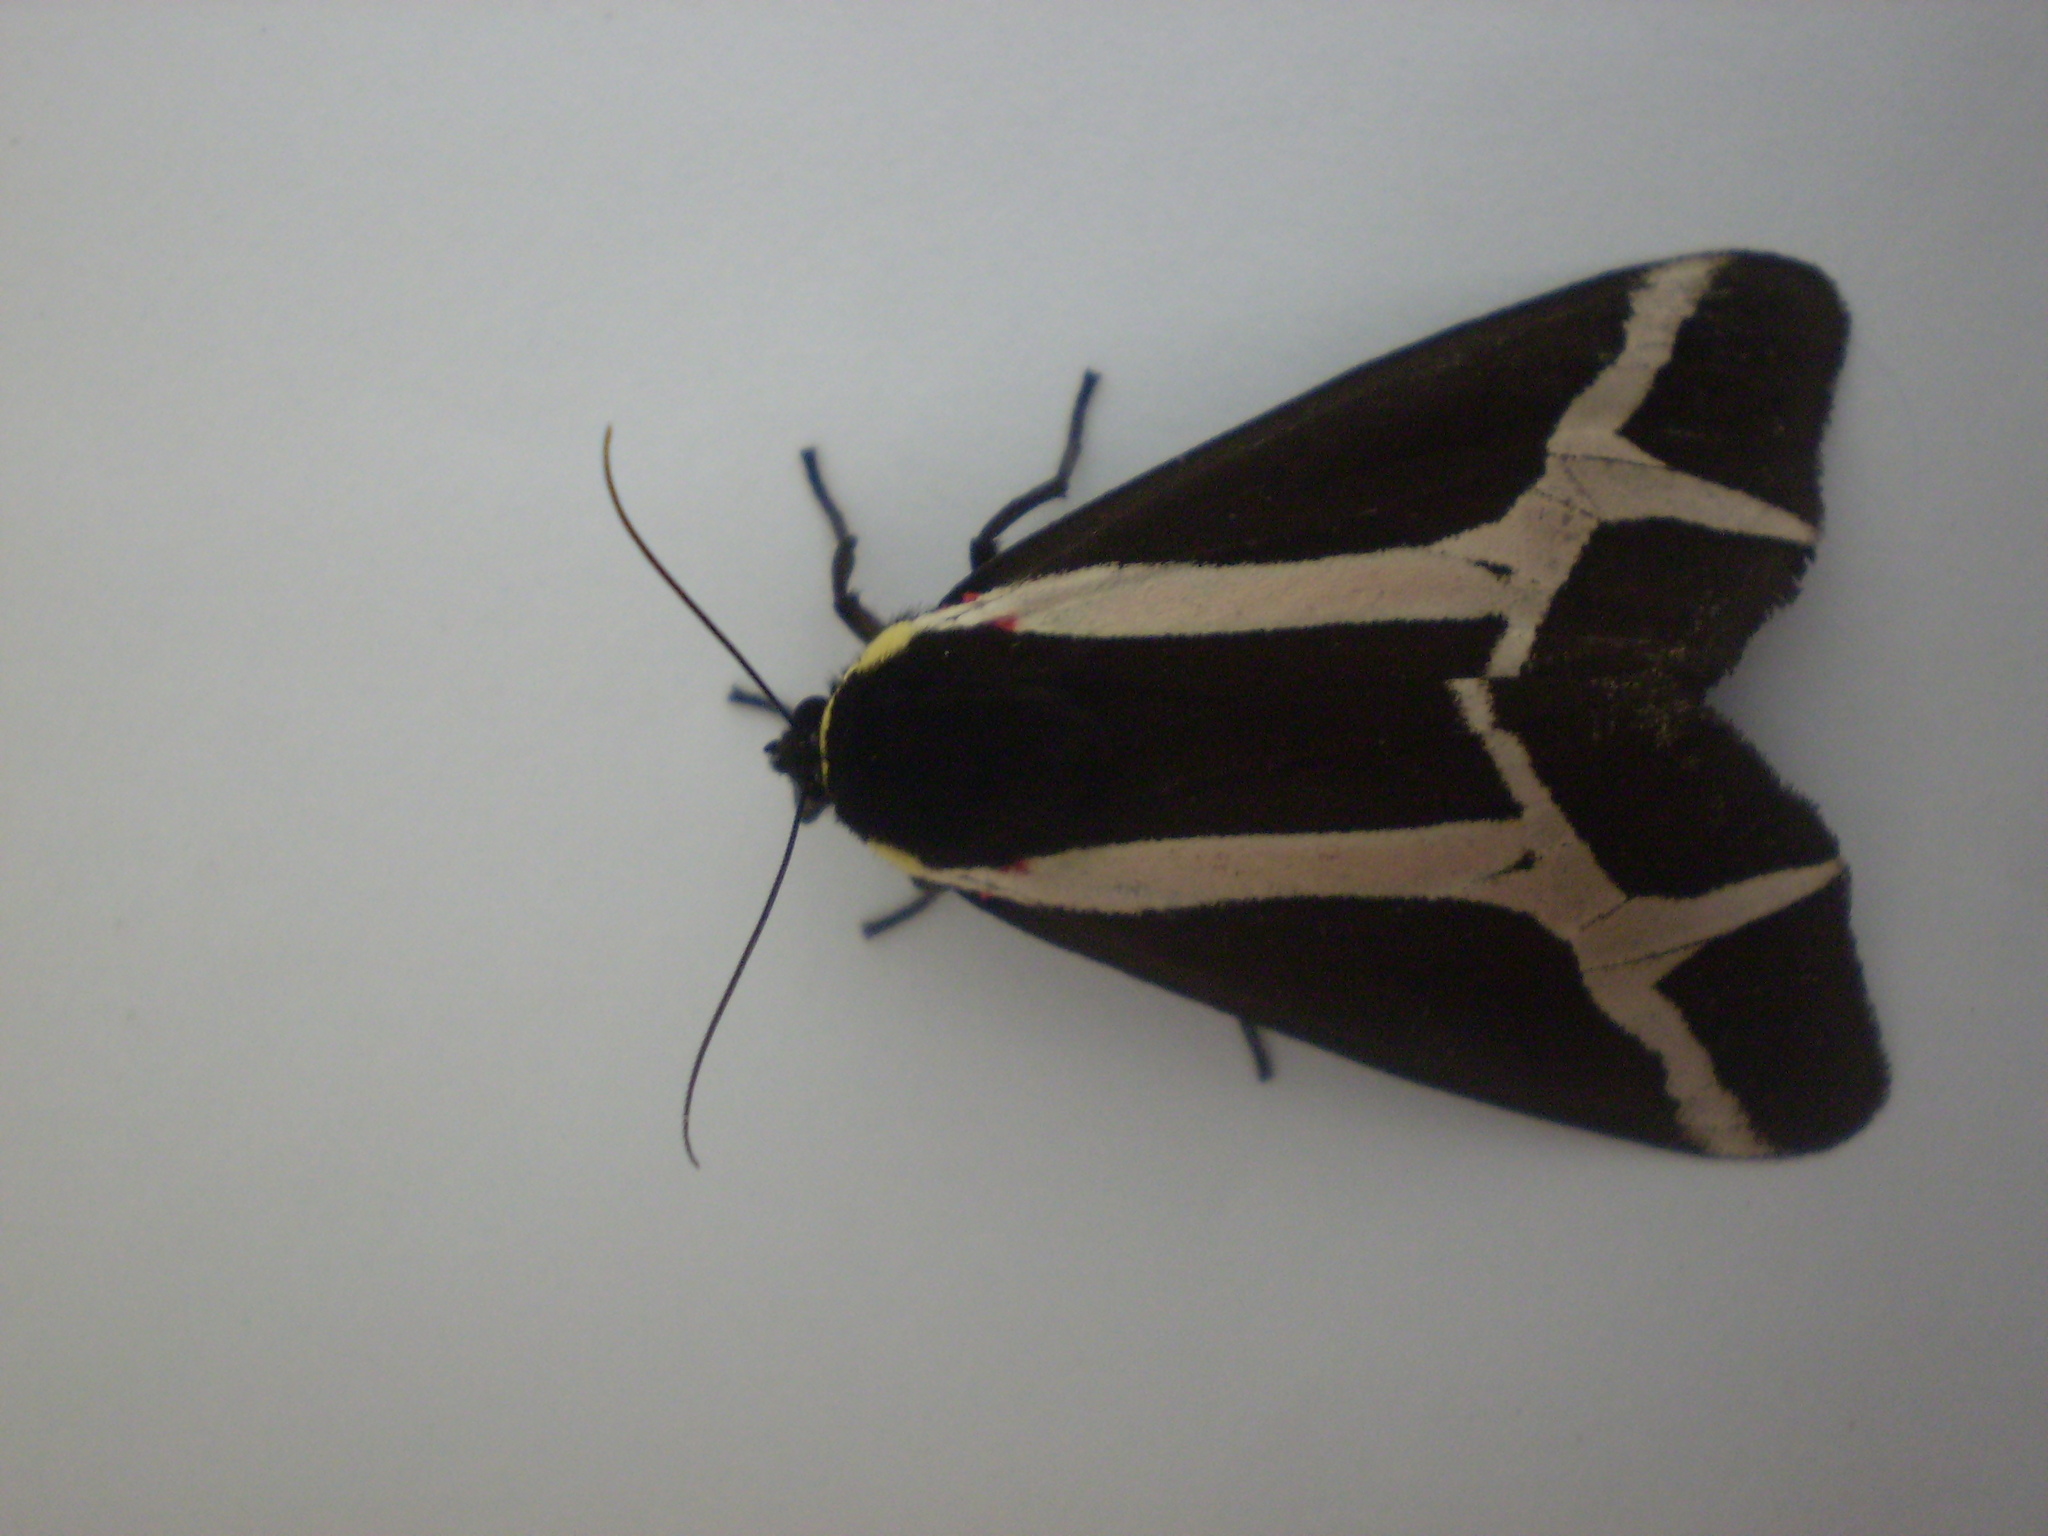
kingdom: Animalia
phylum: Arthropoda
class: Insecta
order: Lepidoptera
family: Erebidae
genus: Dysschema
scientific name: Dysschema sacrifica
